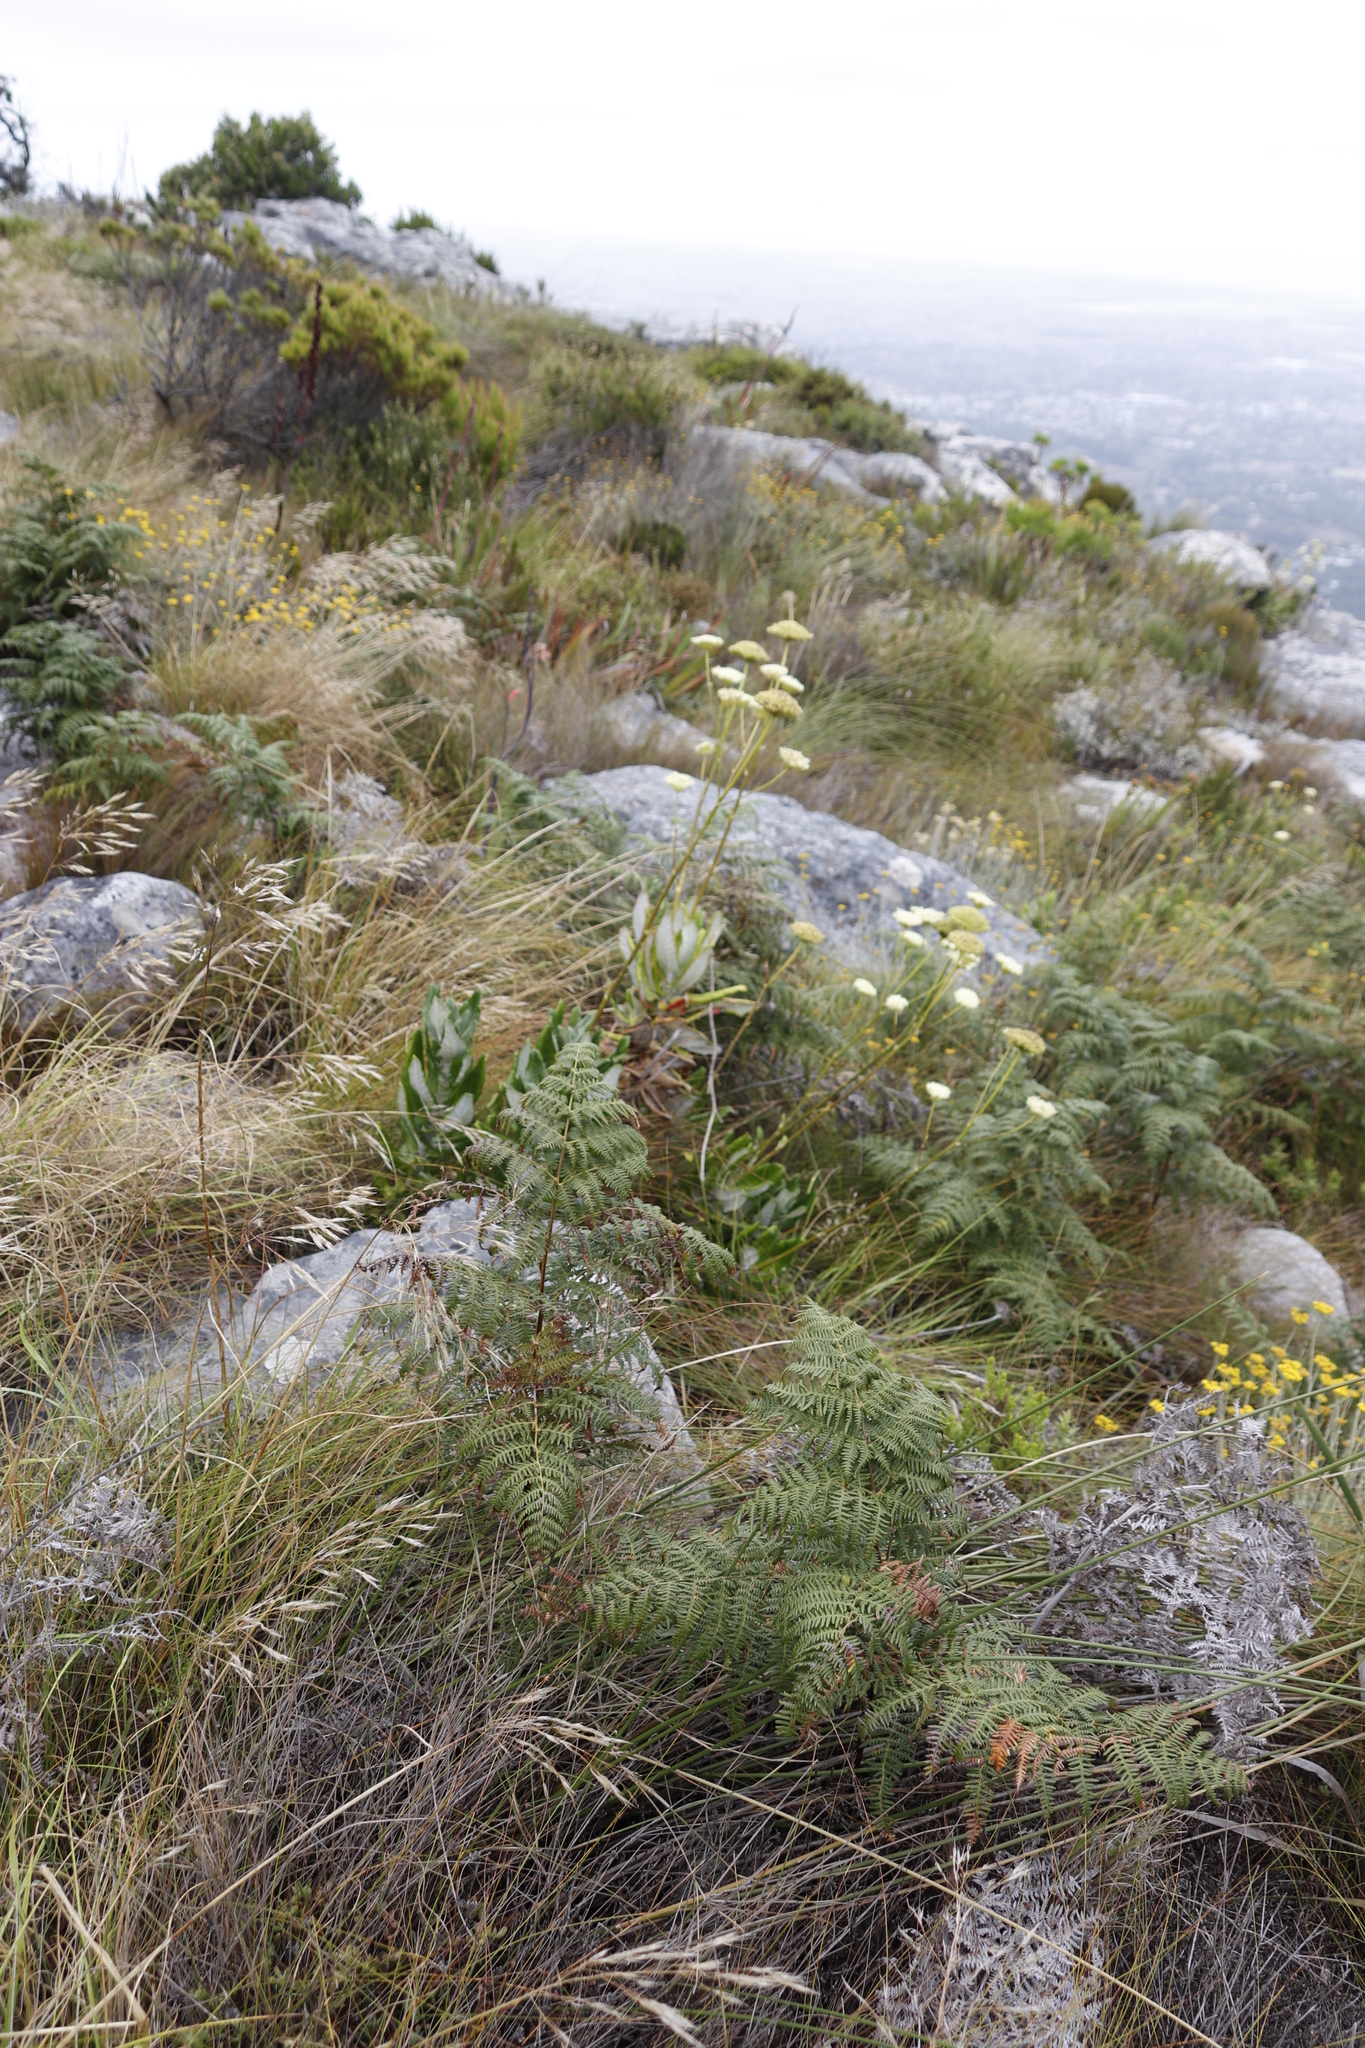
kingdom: Plantae
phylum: Tracheophyta
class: Magnoliopsida
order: Apiales
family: Apiaceae
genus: Hermas
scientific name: Hermas villosa
